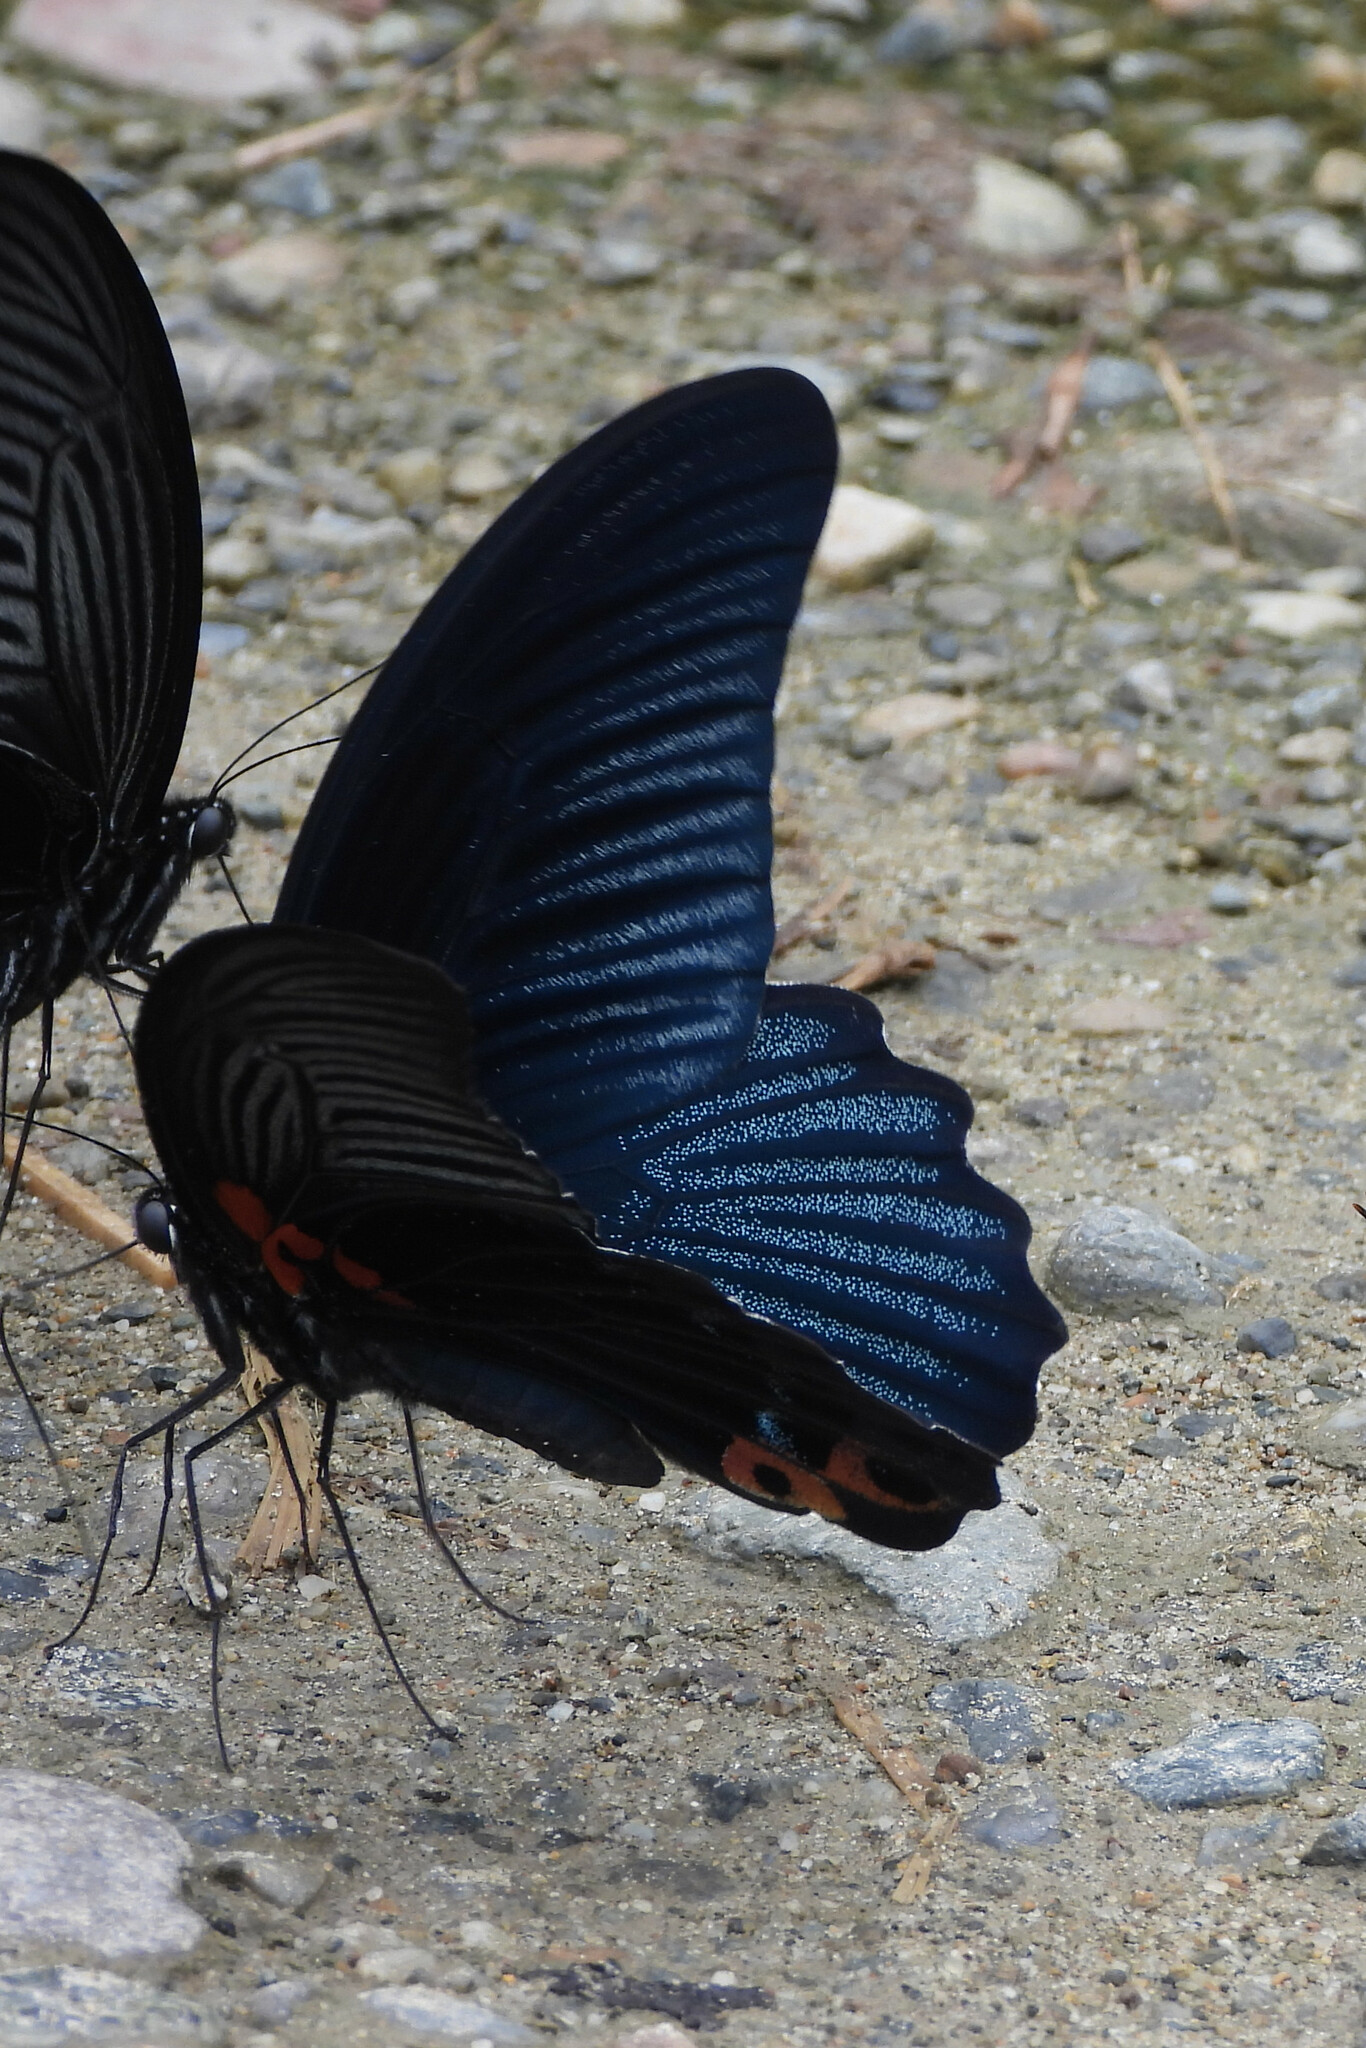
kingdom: Animalia
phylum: Arthropoda
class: Insecta
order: Lepidoptera
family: Papilionidae
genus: Papilio
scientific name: Papilio memnon
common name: Great mormon
